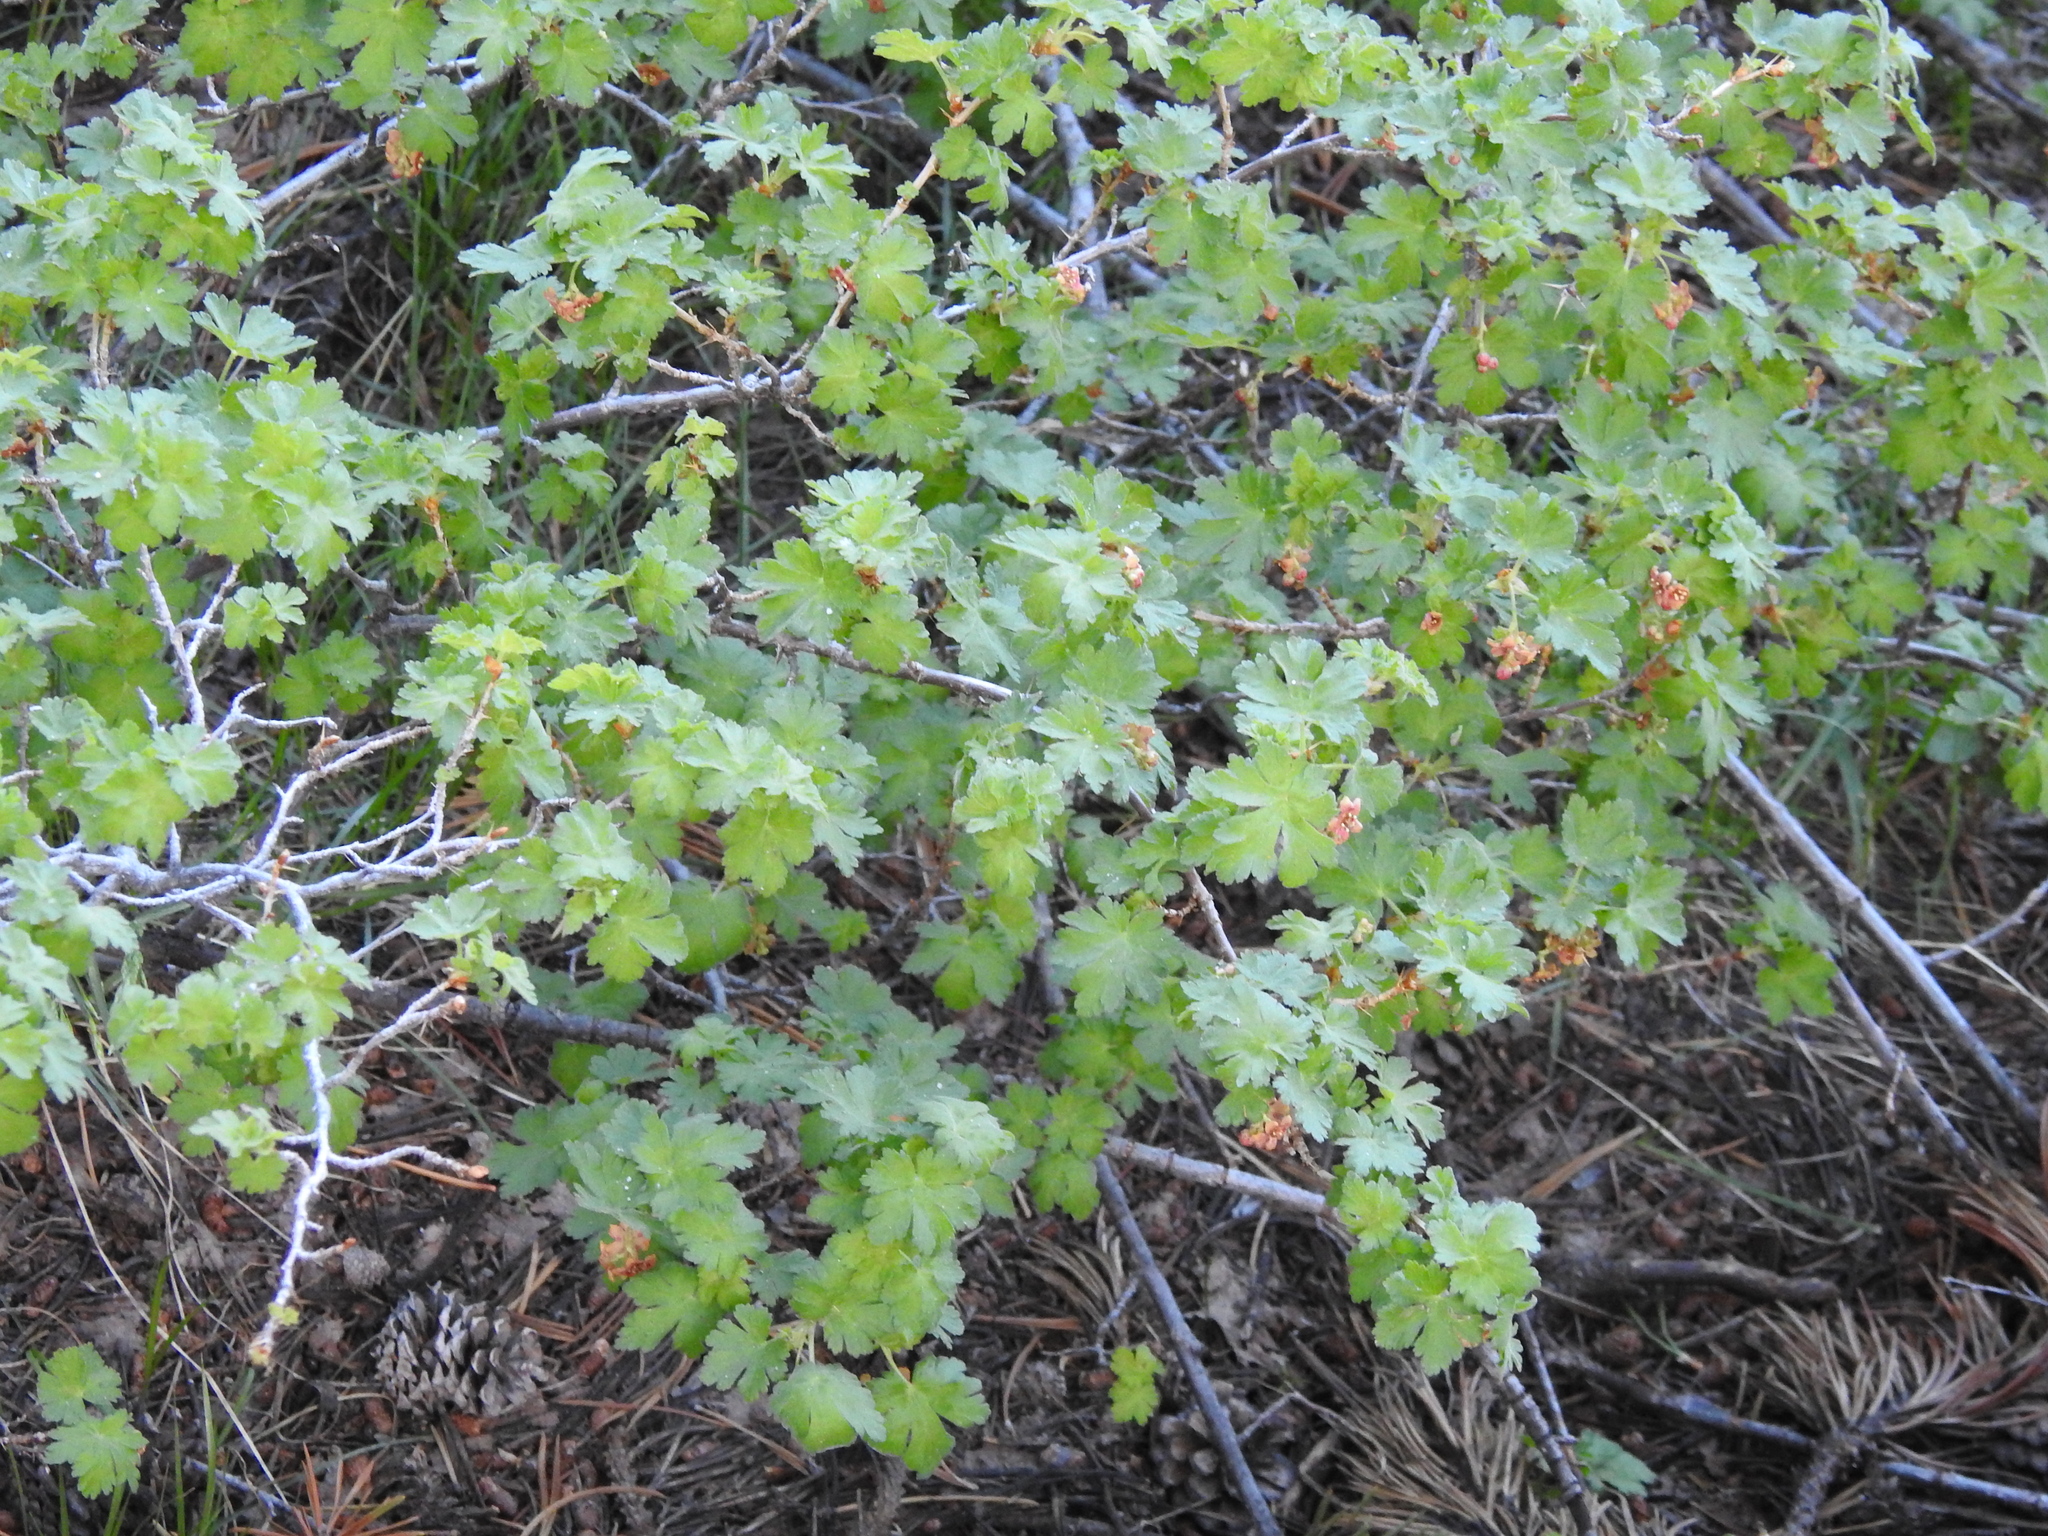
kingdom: Plantae
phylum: Tracheophyta
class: Magnoliopsida
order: Saxifragales
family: Grossulariaceae
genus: Ribes
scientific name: Ribes montigenum
